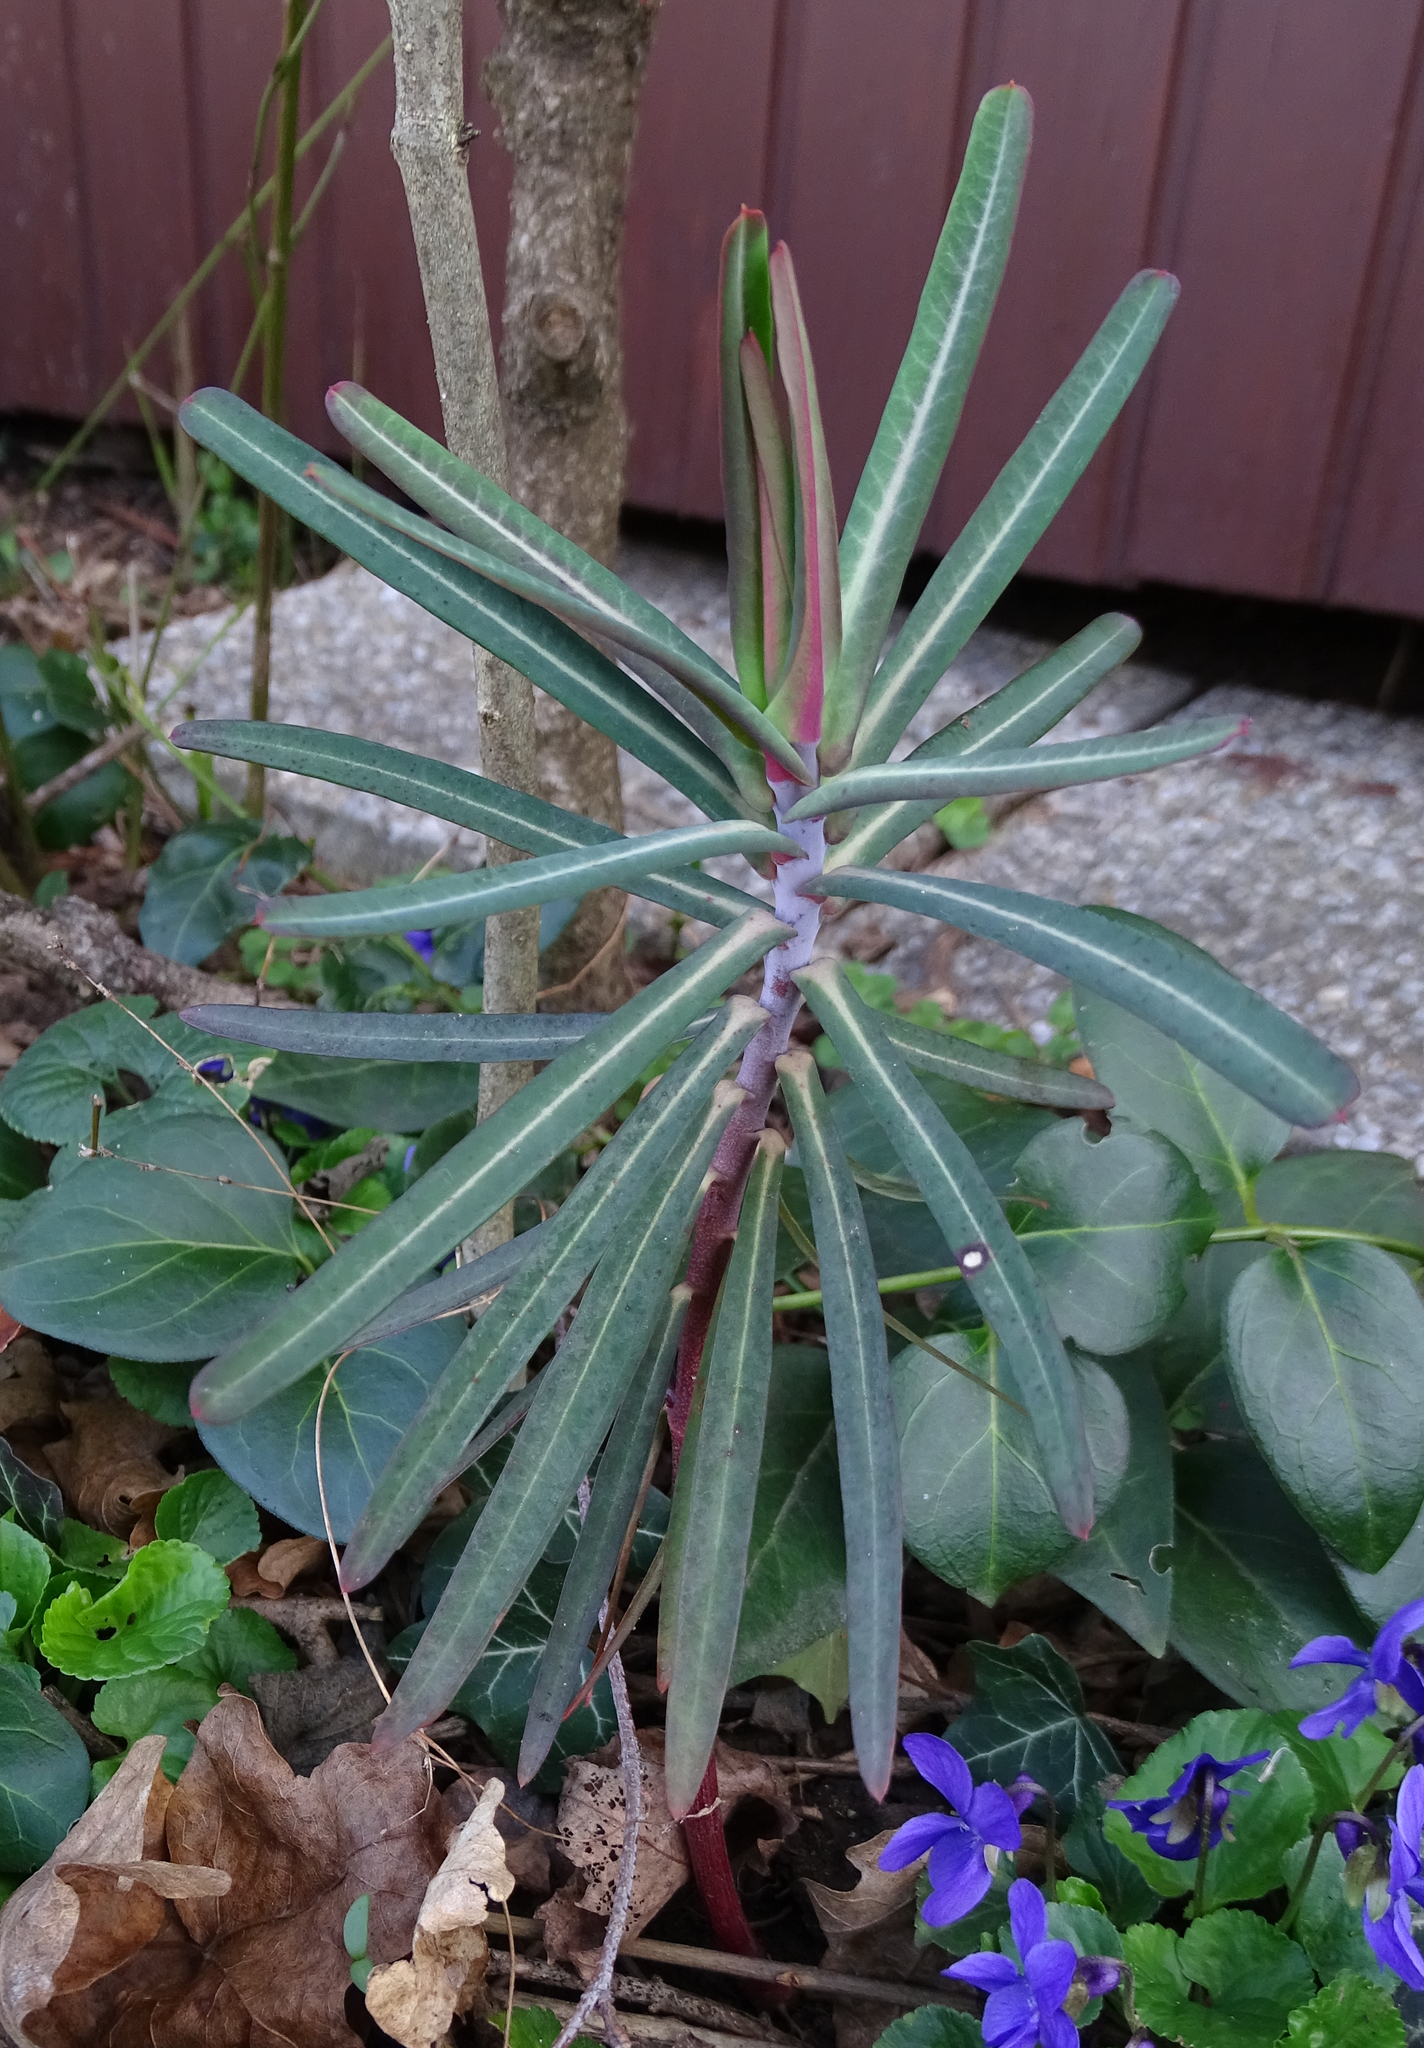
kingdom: Plantae
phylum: Tracheophyta
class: Magnoliopsida
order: Malpighiales
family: Euphorbiaceae
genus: Euphorbia
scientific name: Euphorbia lathyris
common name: Caper spurge
